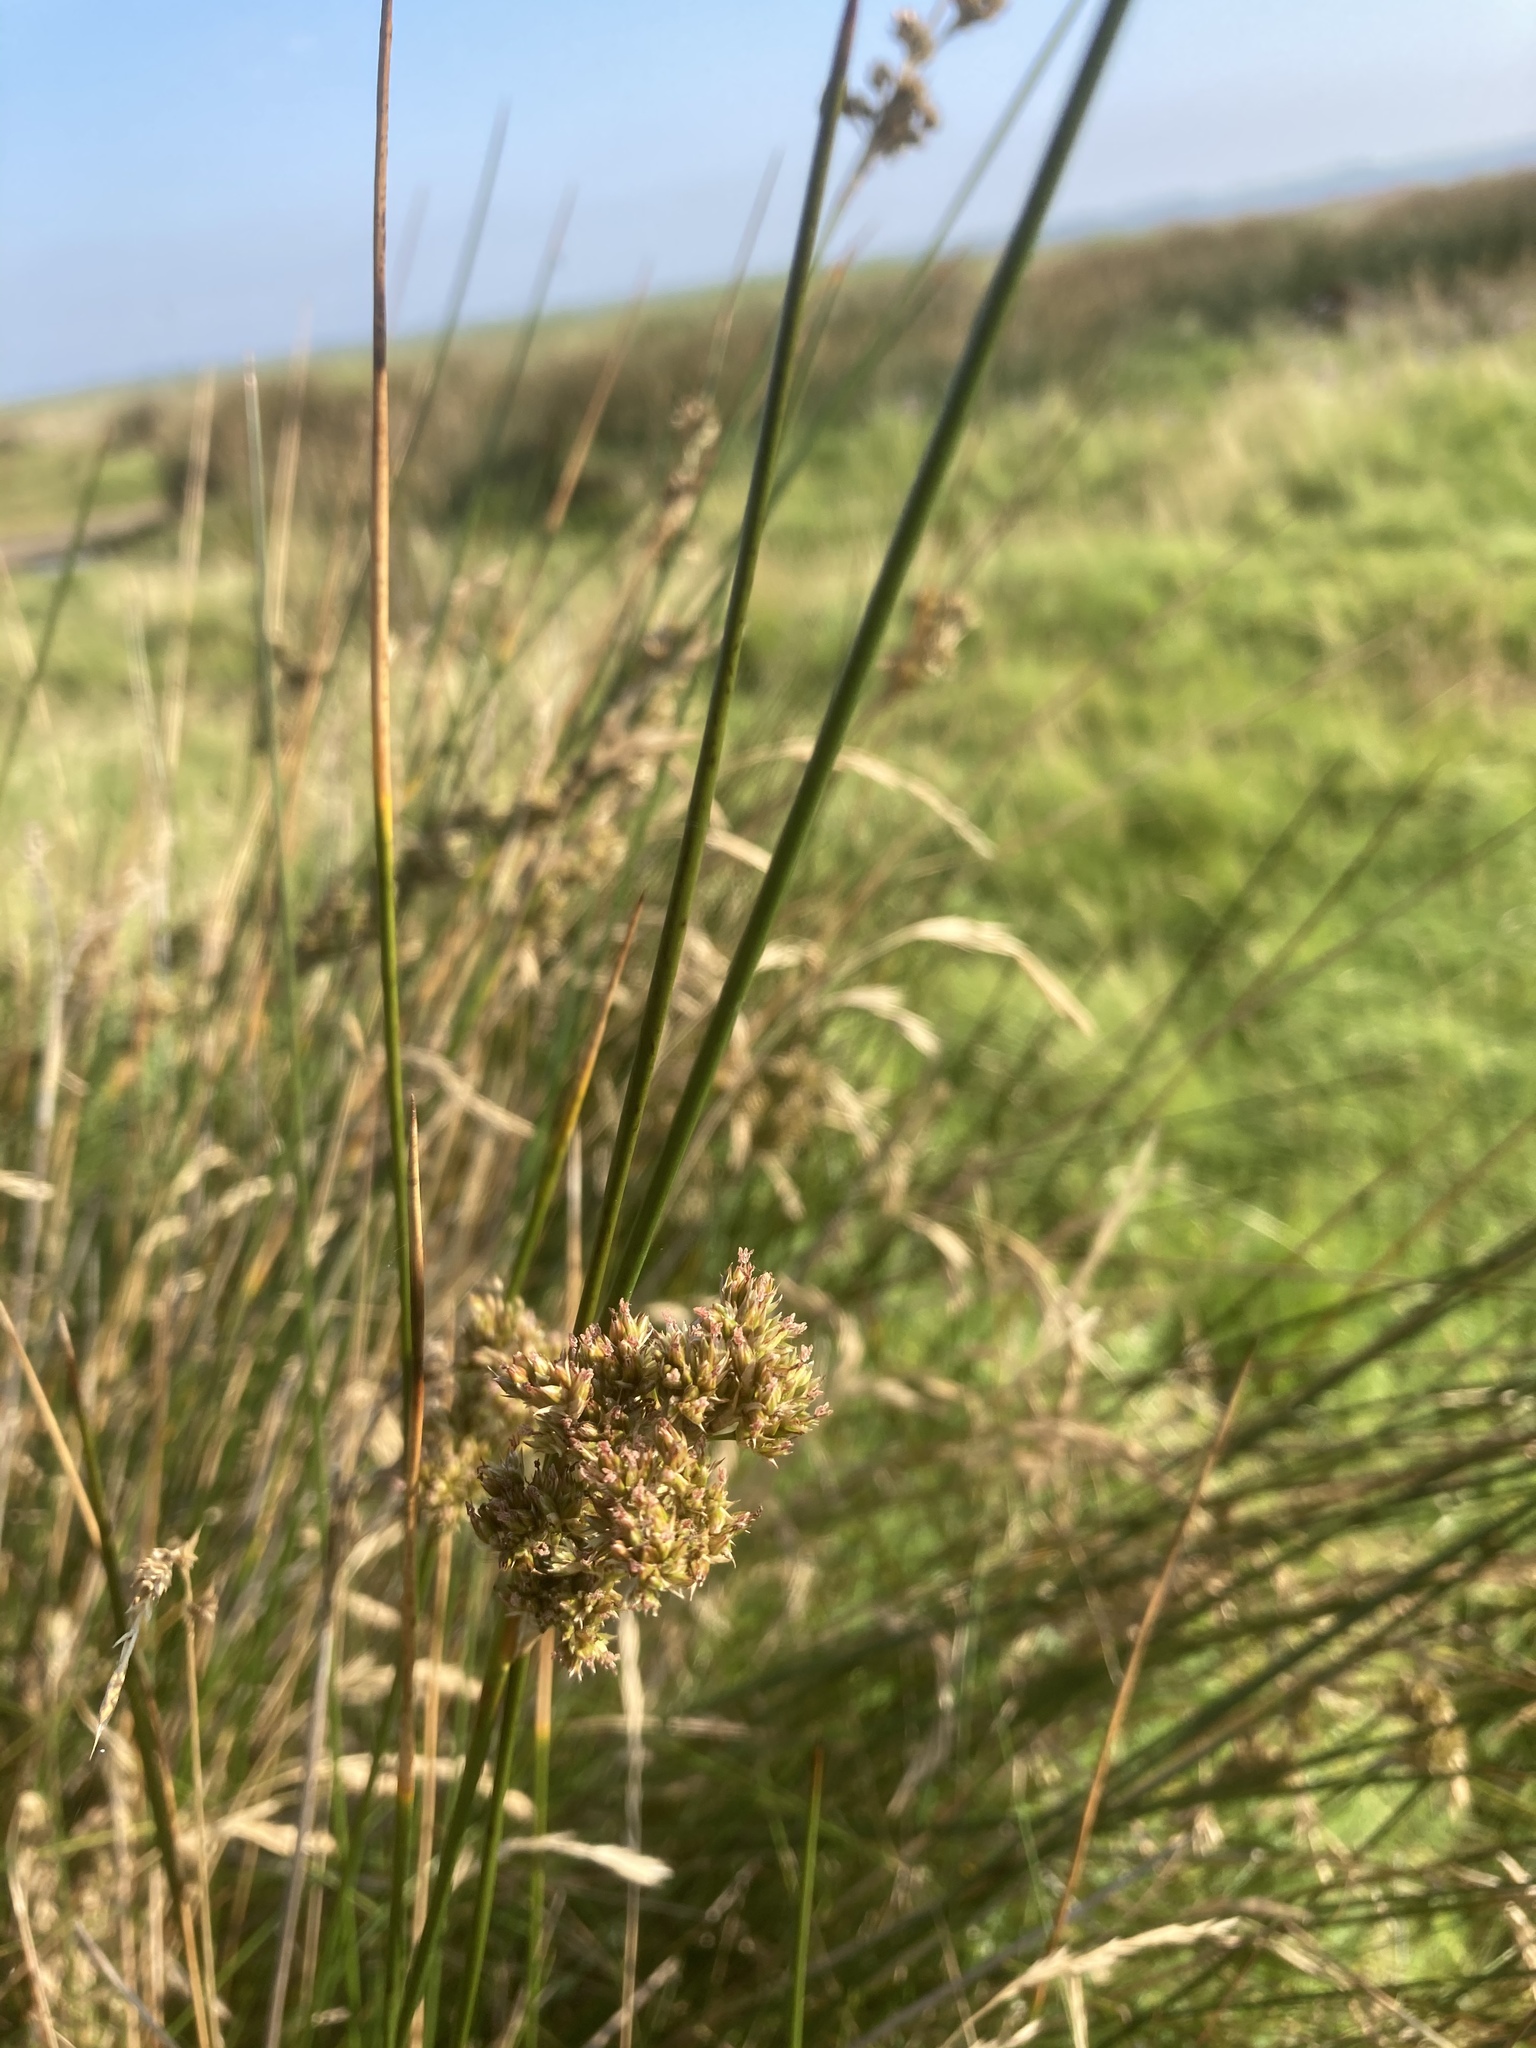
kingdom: Plantae
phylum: Tracheophyta
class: Liliopsida
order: Poales
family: Juncaceae
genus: Juncus
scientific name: Juncus maritimus
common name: Sea rush
